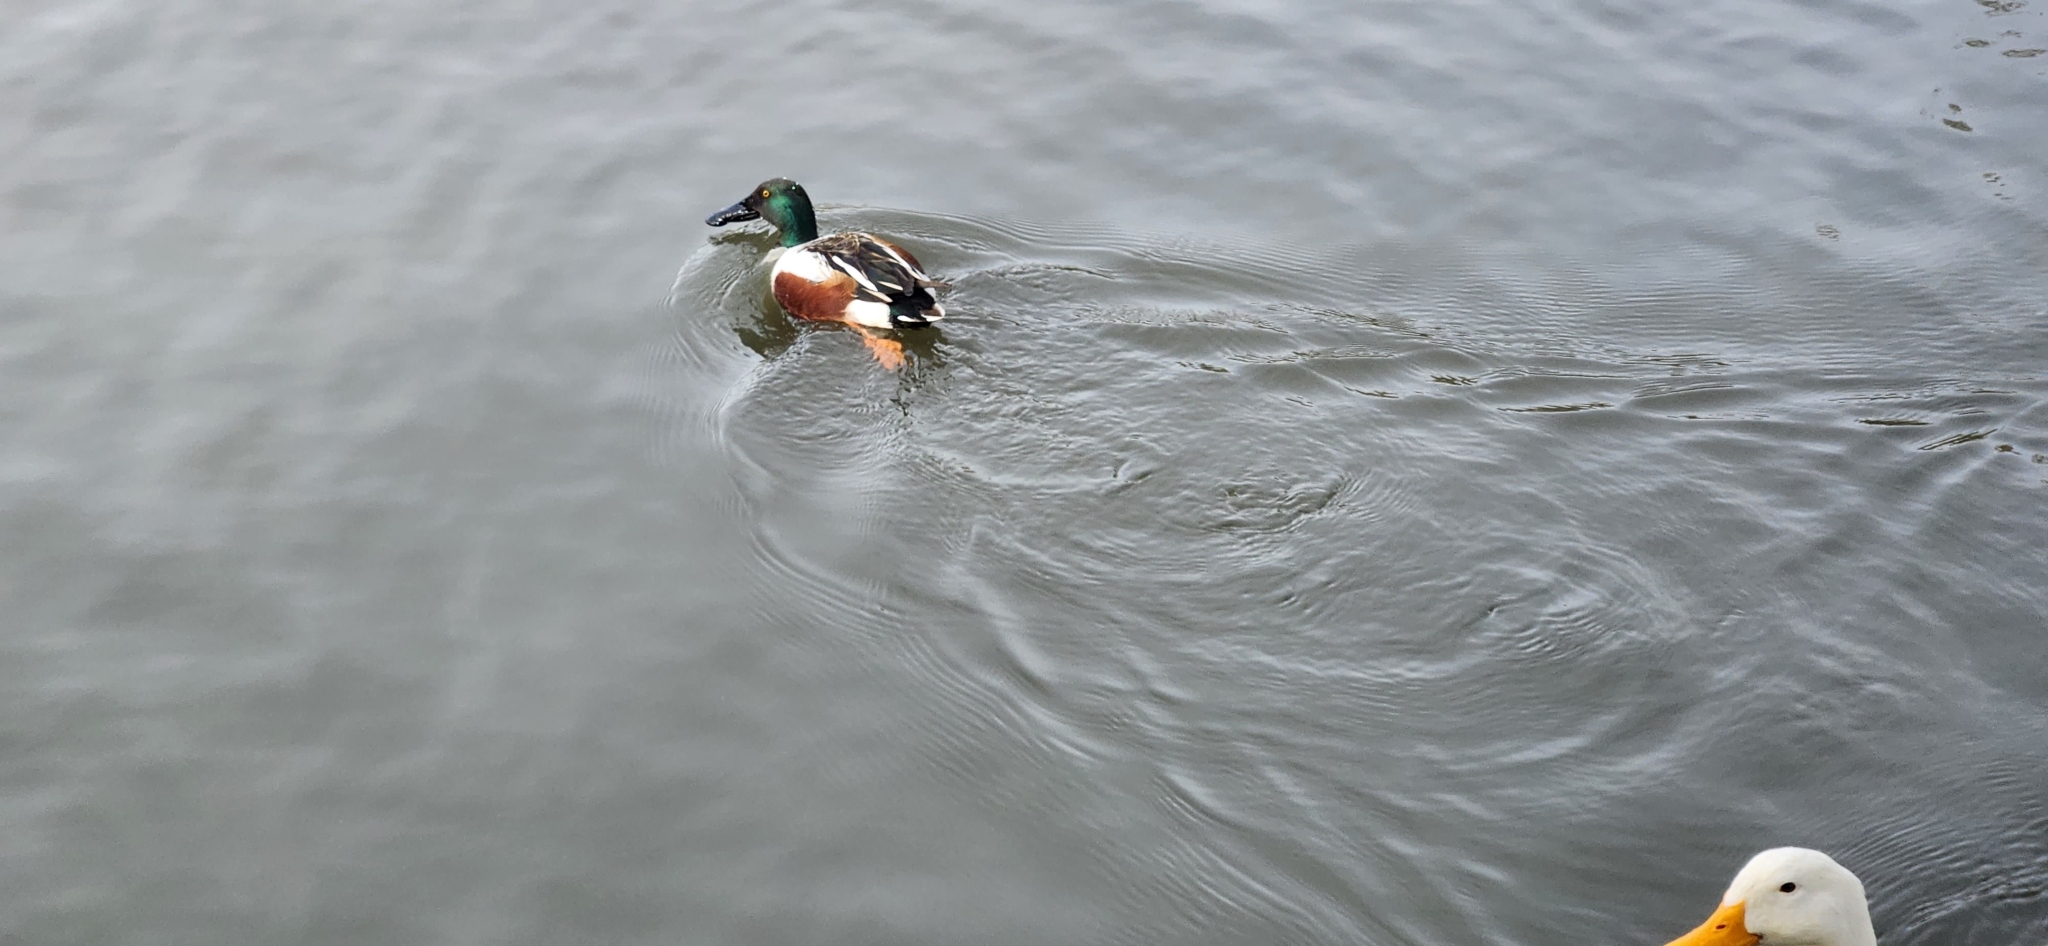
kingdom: Animalia
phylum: Chordata
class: Aves
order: Anseriformes
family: Anatidae
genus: Spatula
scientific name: Spatula clypeata
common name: Northern shoveler
